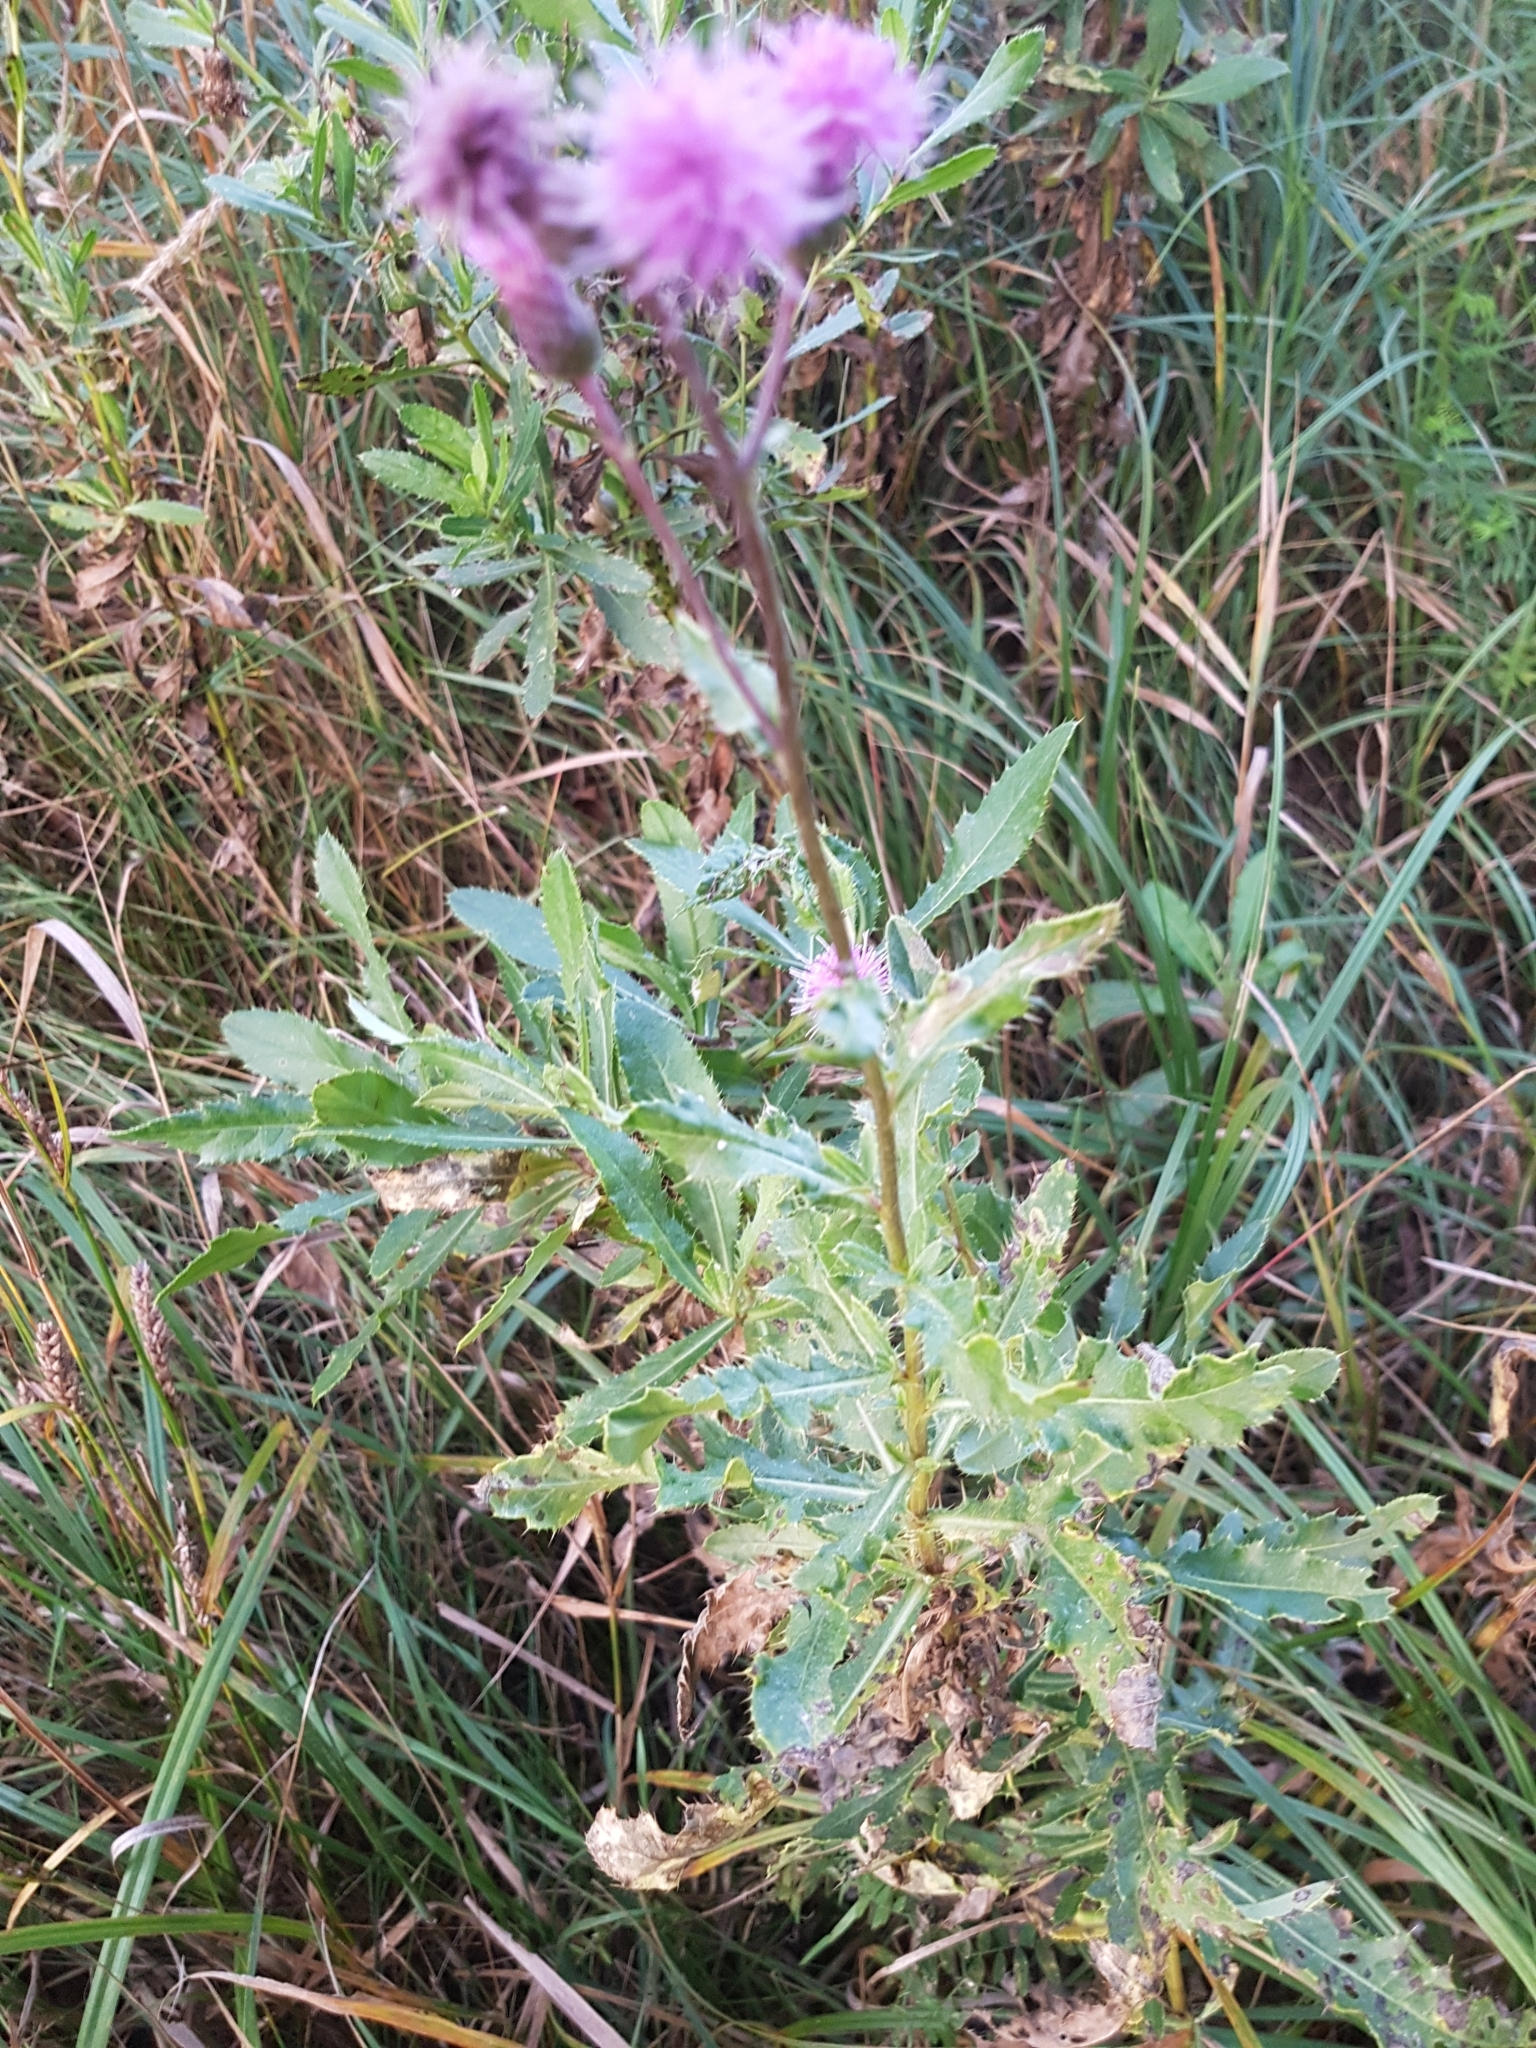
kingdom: Plantae
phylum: Tracheophyta
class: Magnoliopsida
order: Asterales
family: Asteraceae
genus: Cirsium
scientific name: Cirsium arvense
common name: Creeping thistle
